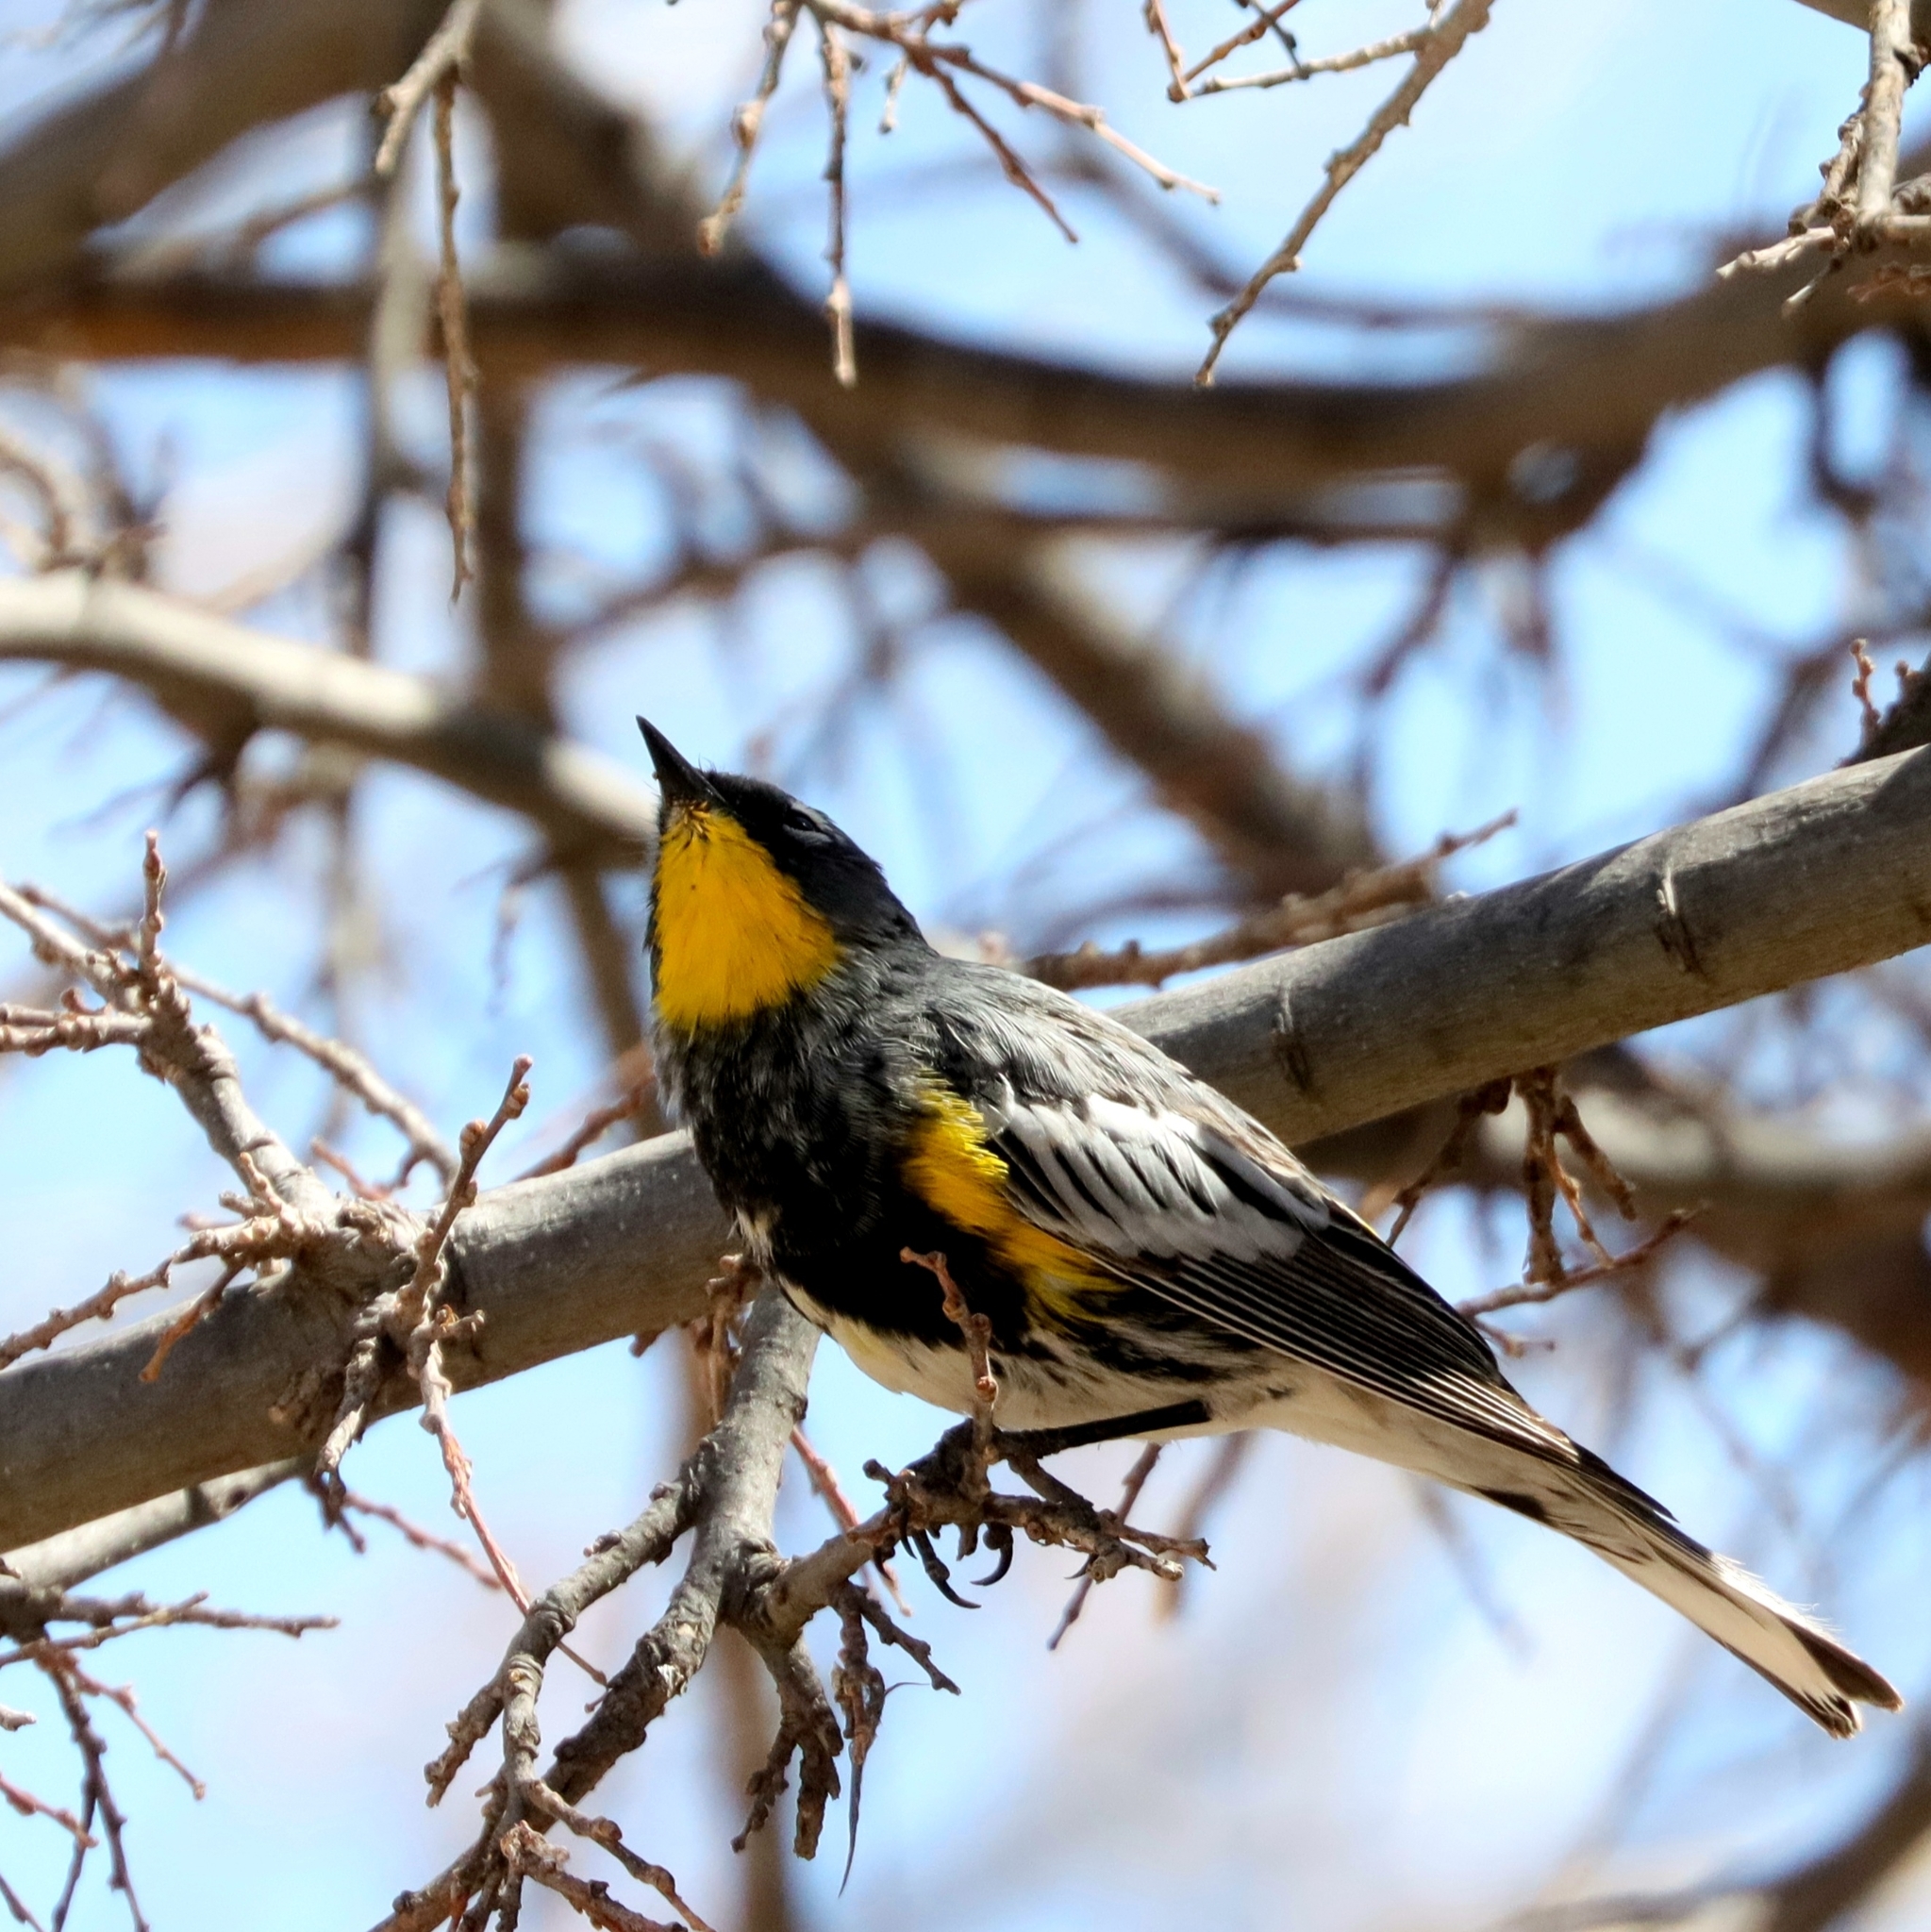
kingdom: Animalia
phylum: Chordata
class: Aves
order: Passeriformes
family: Parulidae
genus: Setophaga
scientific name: Setophaga coronata
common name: Myrtle warbler
